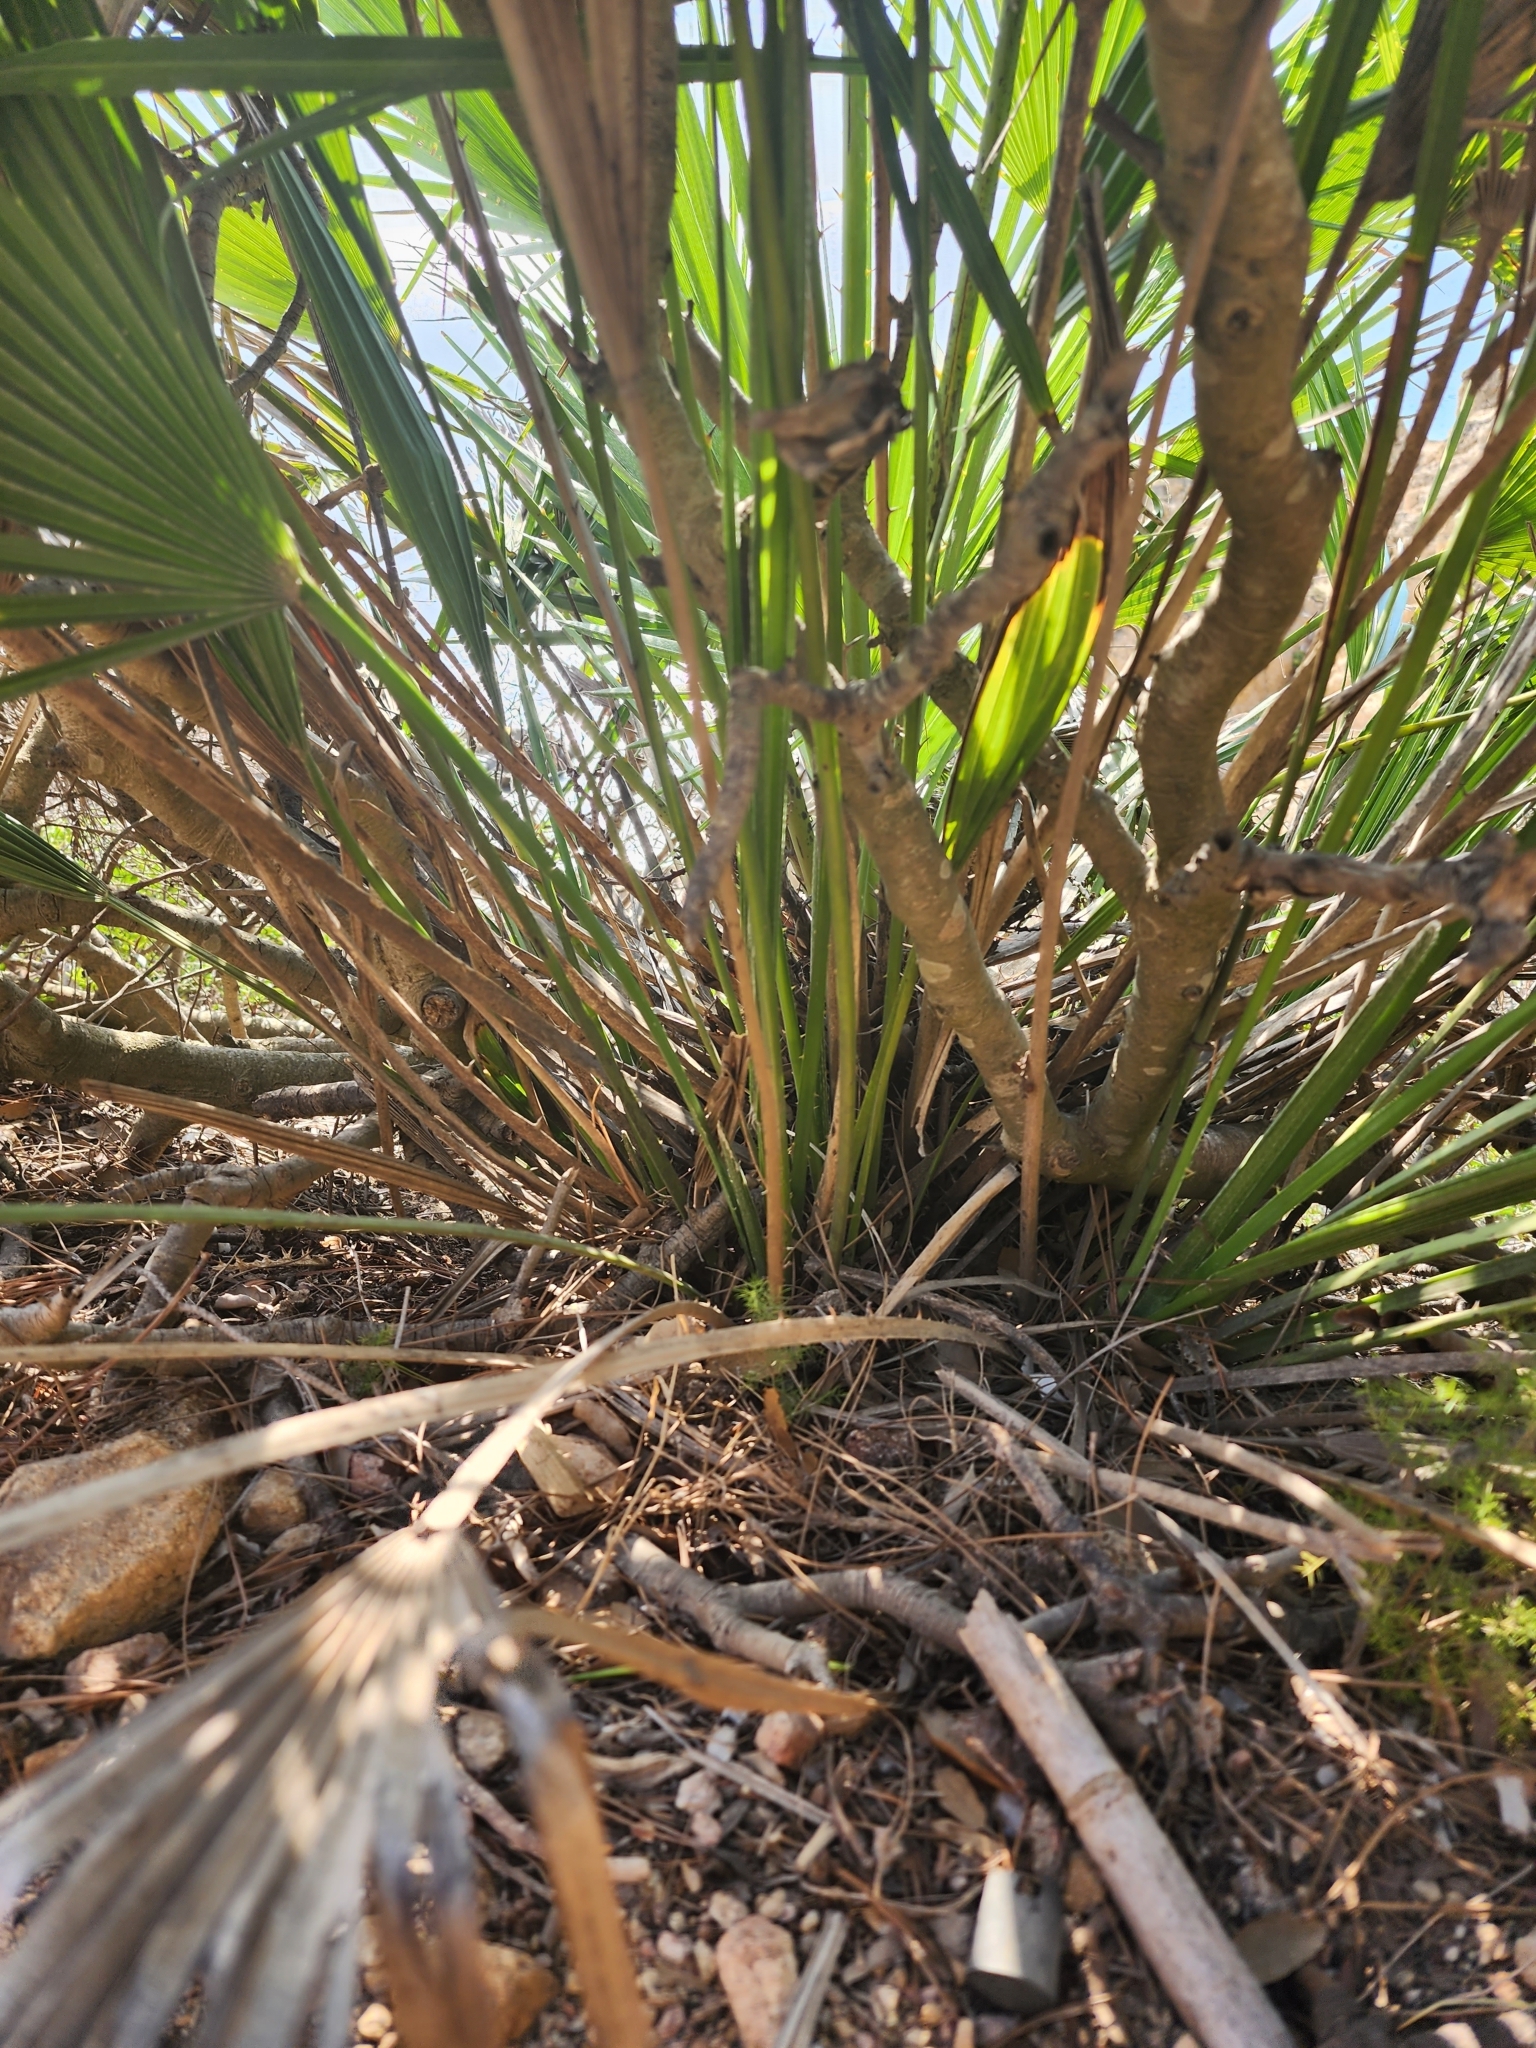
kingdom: Plantae
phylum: Tracheophyta
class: Liliopsida
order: Arecales
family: Arecaceae
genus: Chamaerops
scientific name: Chamaerops humilis
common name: Dwarf fan palm
